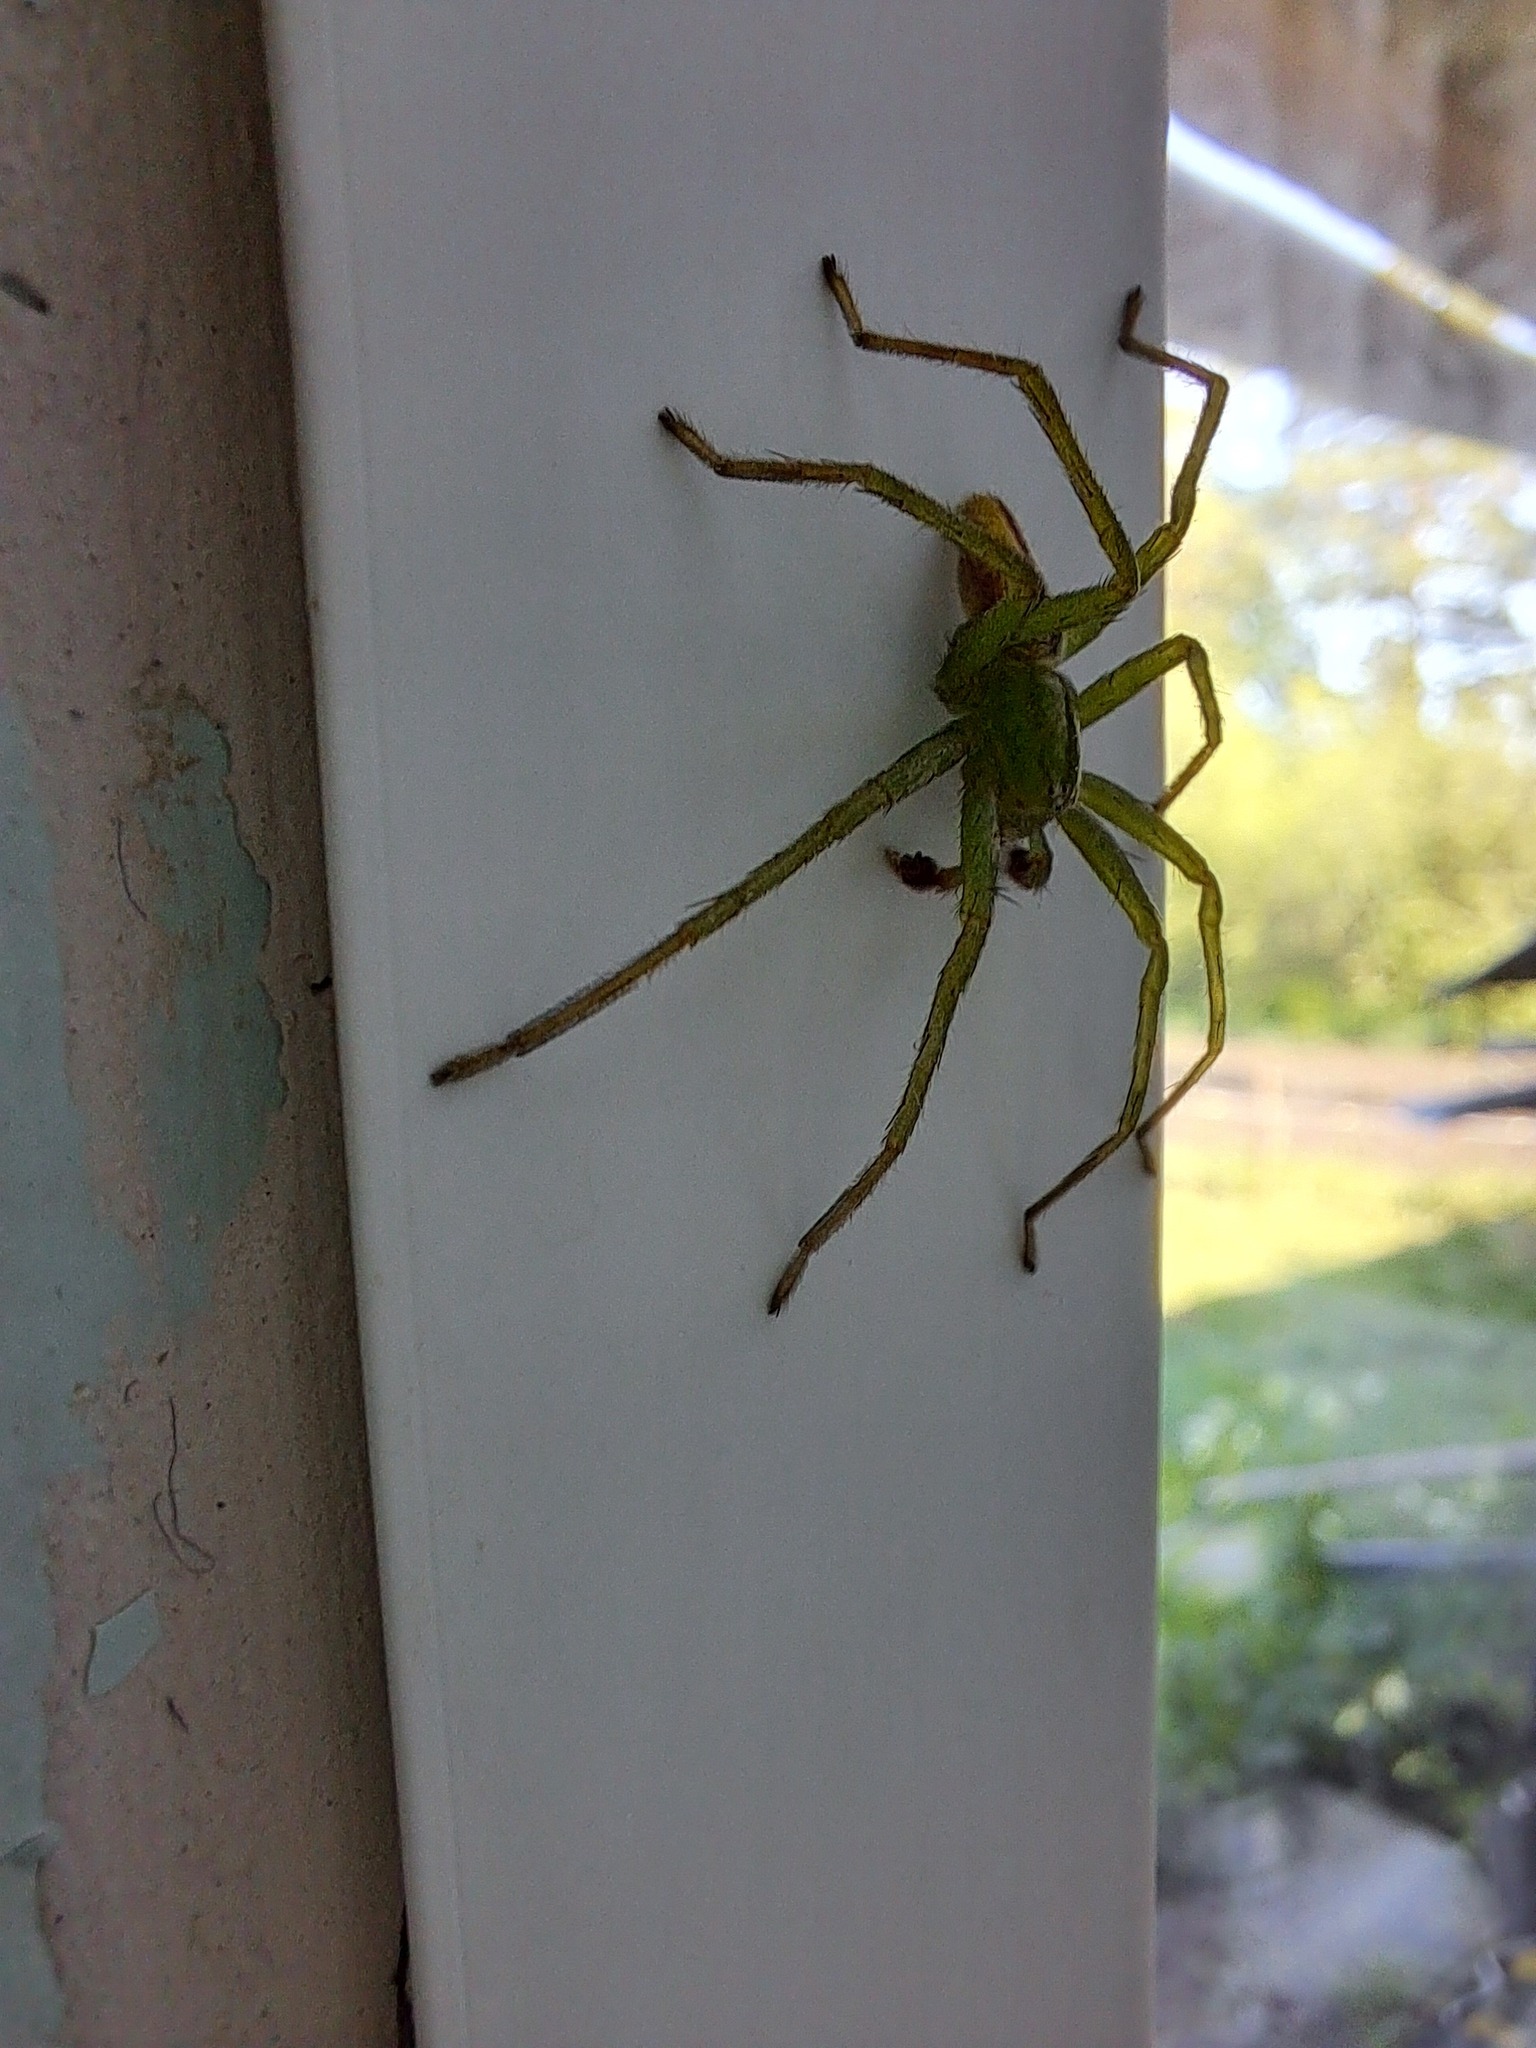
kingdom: Animalia
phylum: Arthropoda
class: Arachnida
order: Araneae
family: Sparassidae
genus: Micrommata
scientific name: Micrommata virescens
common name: Green spider
